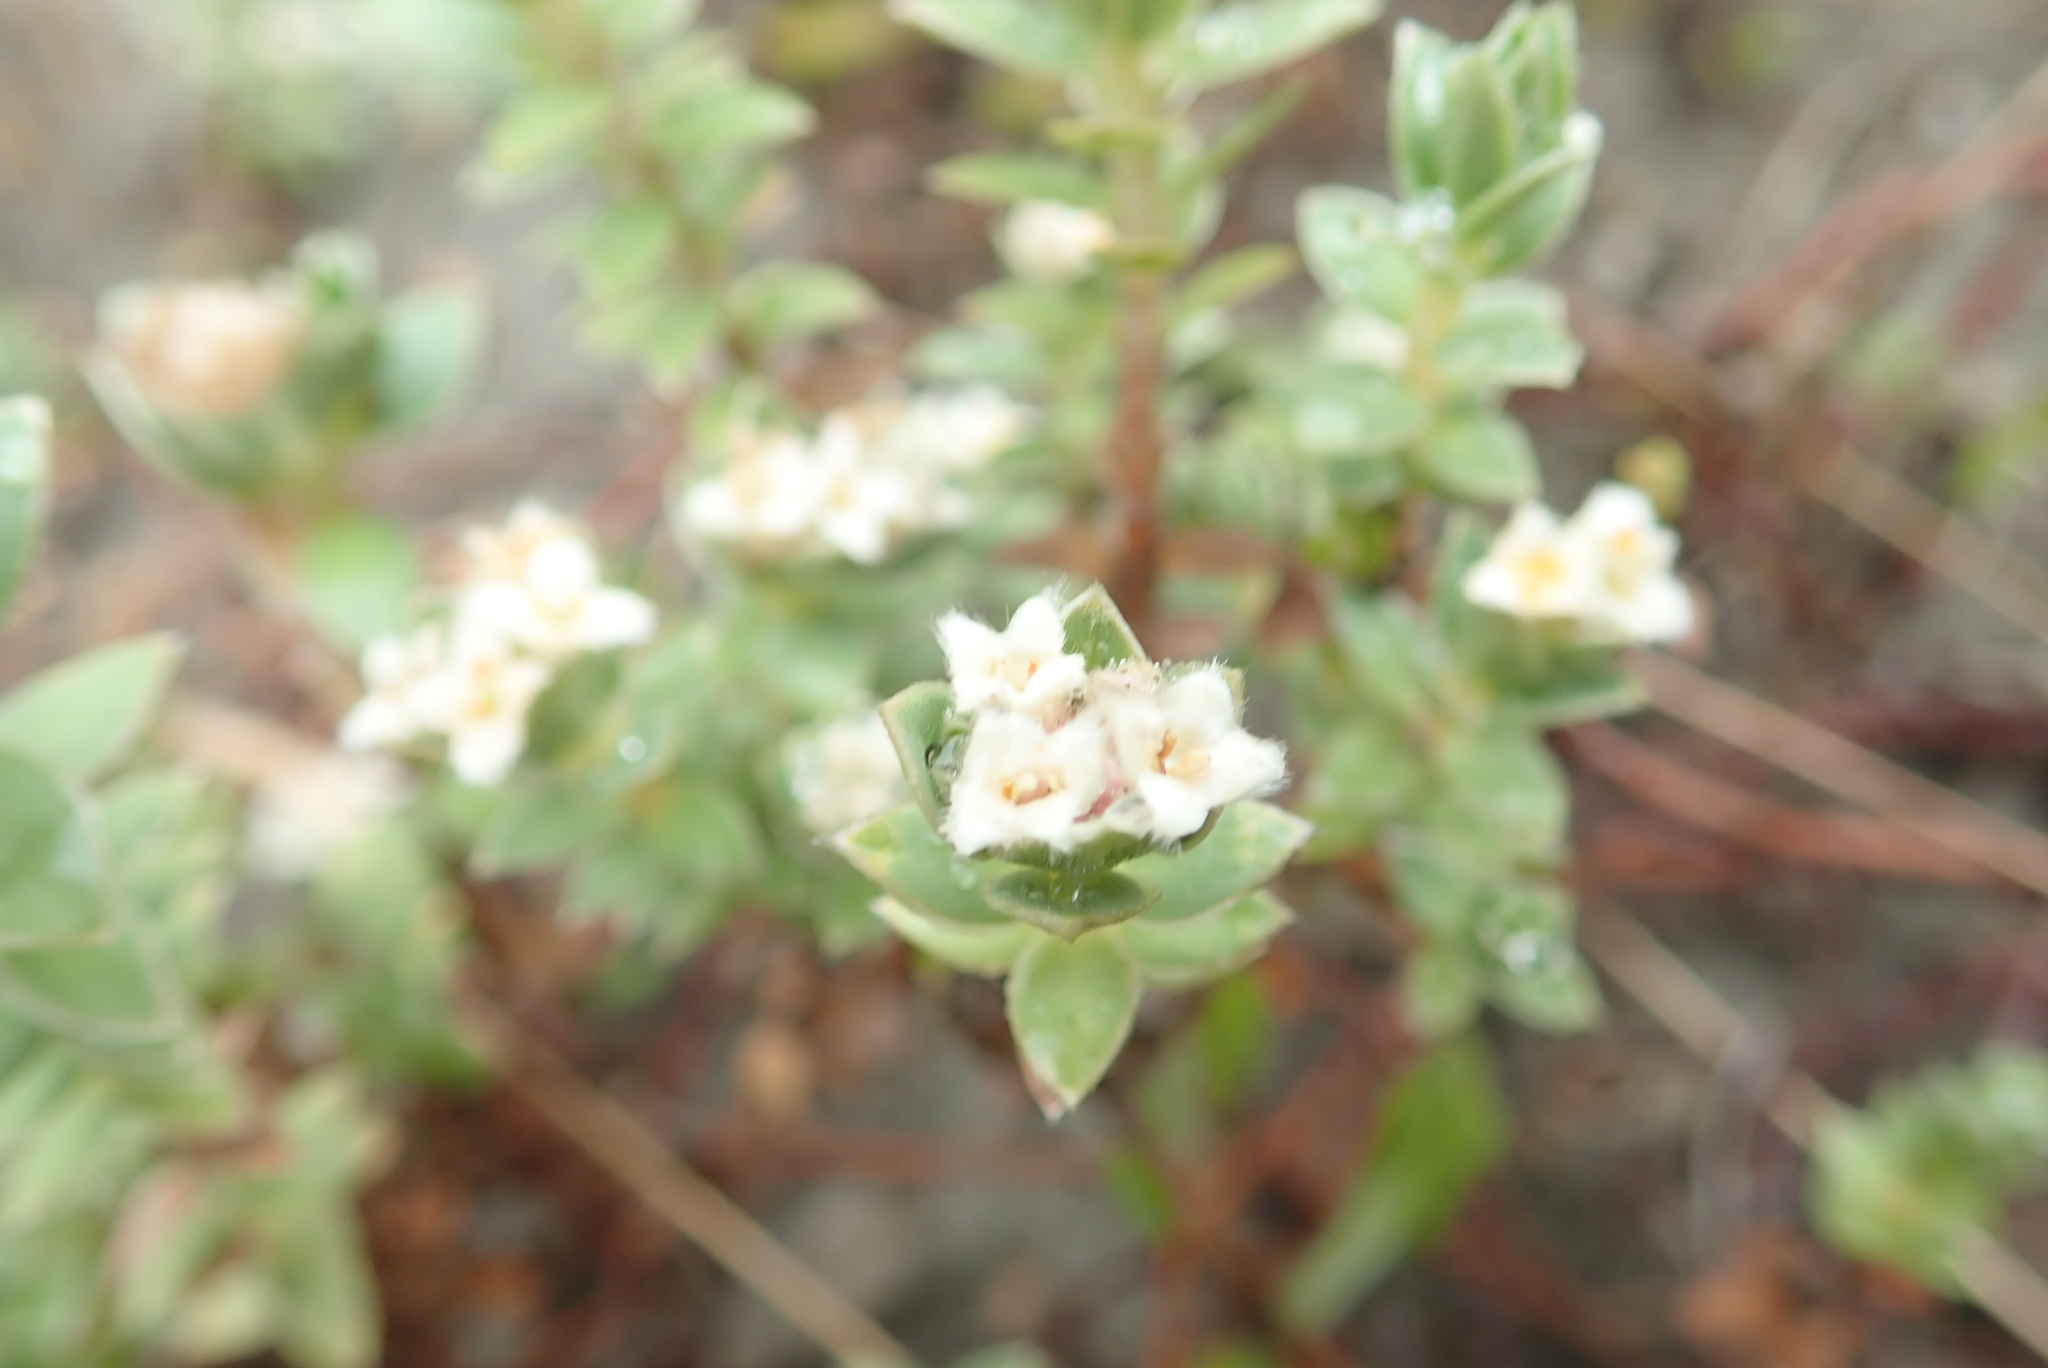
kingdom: Plantae
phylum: Tracheophyta
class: Magnoliopsida
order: Malvales
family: Thymelaeaceae
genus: Pimelea
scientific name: Pimelea villosa
